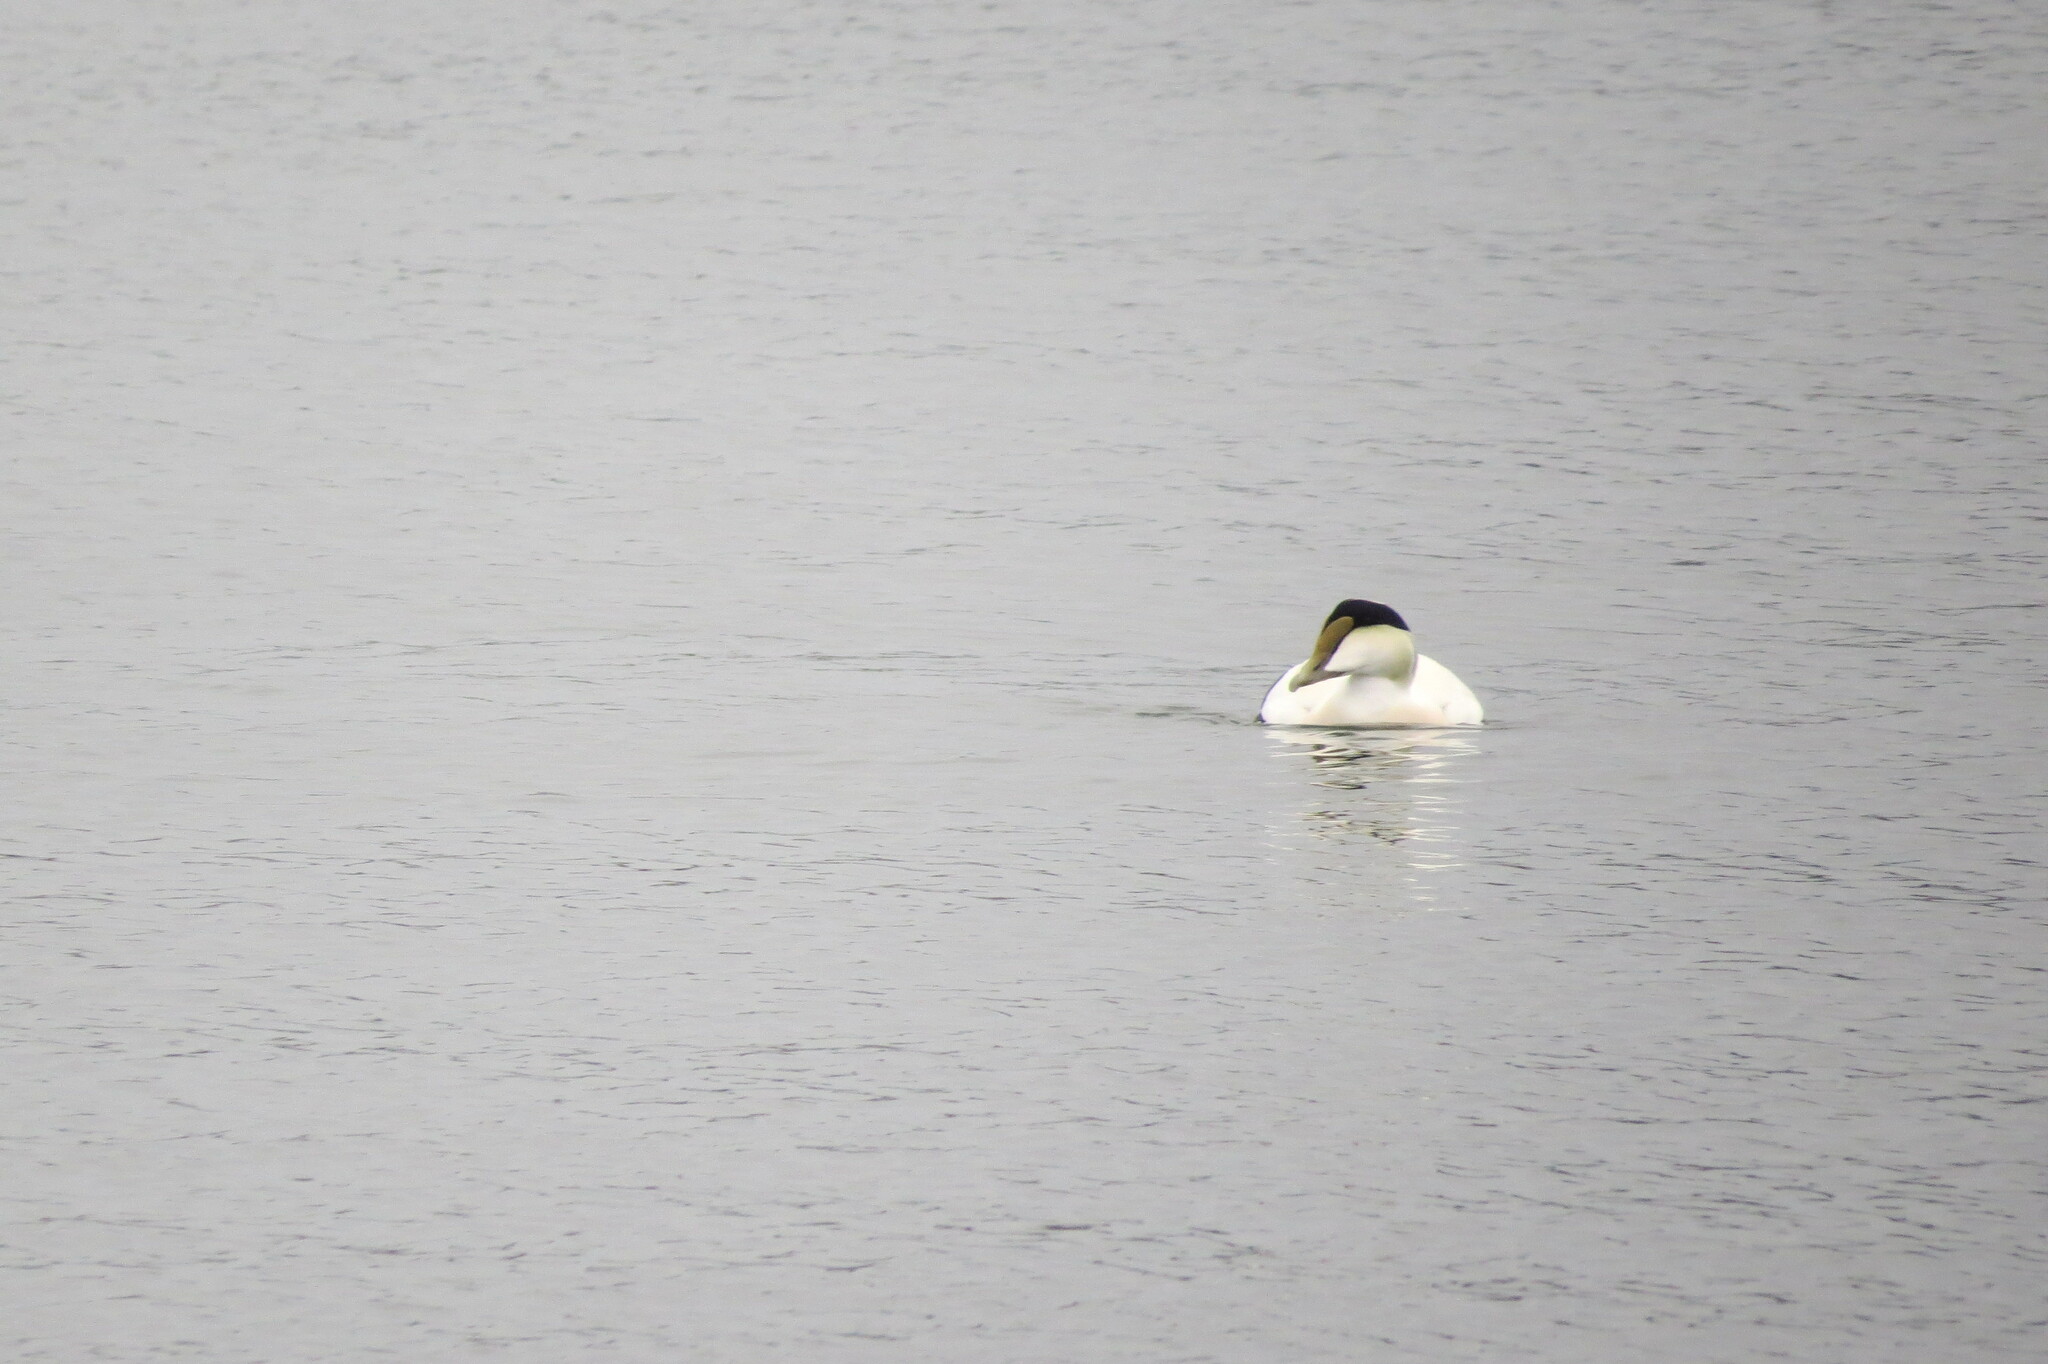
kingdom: Animalia
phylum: Chordata
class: Aves
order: Anseriformes
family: Anatidae
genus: Somateria
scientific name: Somateria mollissima
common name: Common eider
